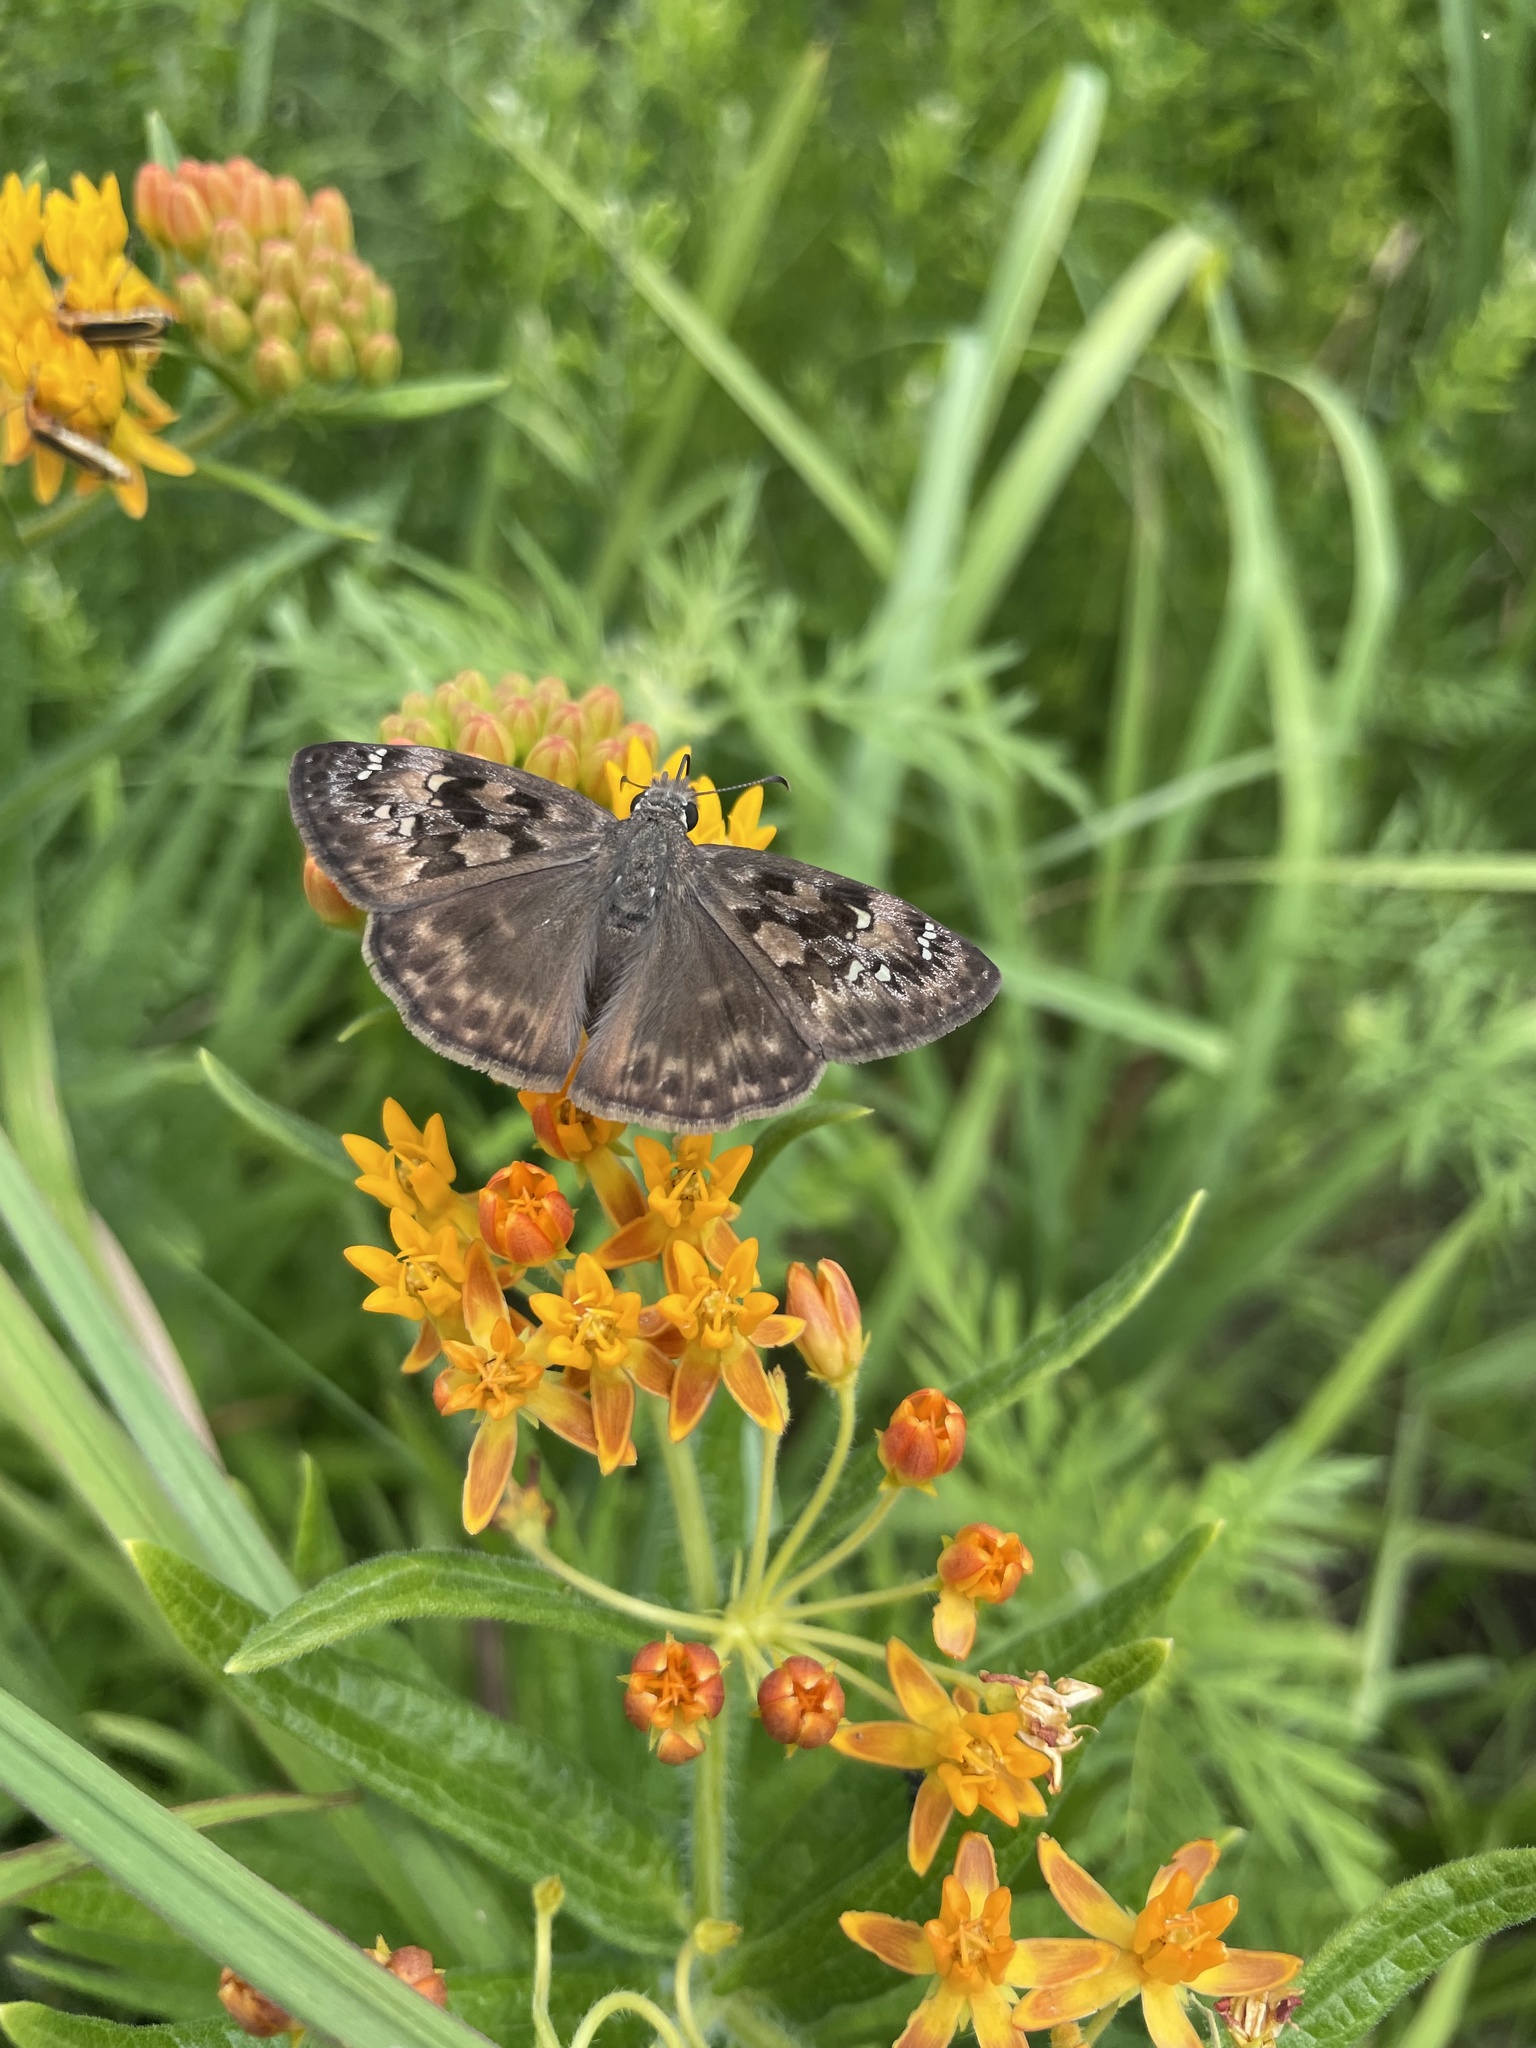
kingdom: Animalia
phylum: Arthropoda
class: Insecta
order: Lepidoptera
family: Hesperiidae
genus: Erynnis
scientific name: Erynnis horatius
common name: Horace's duskywing
